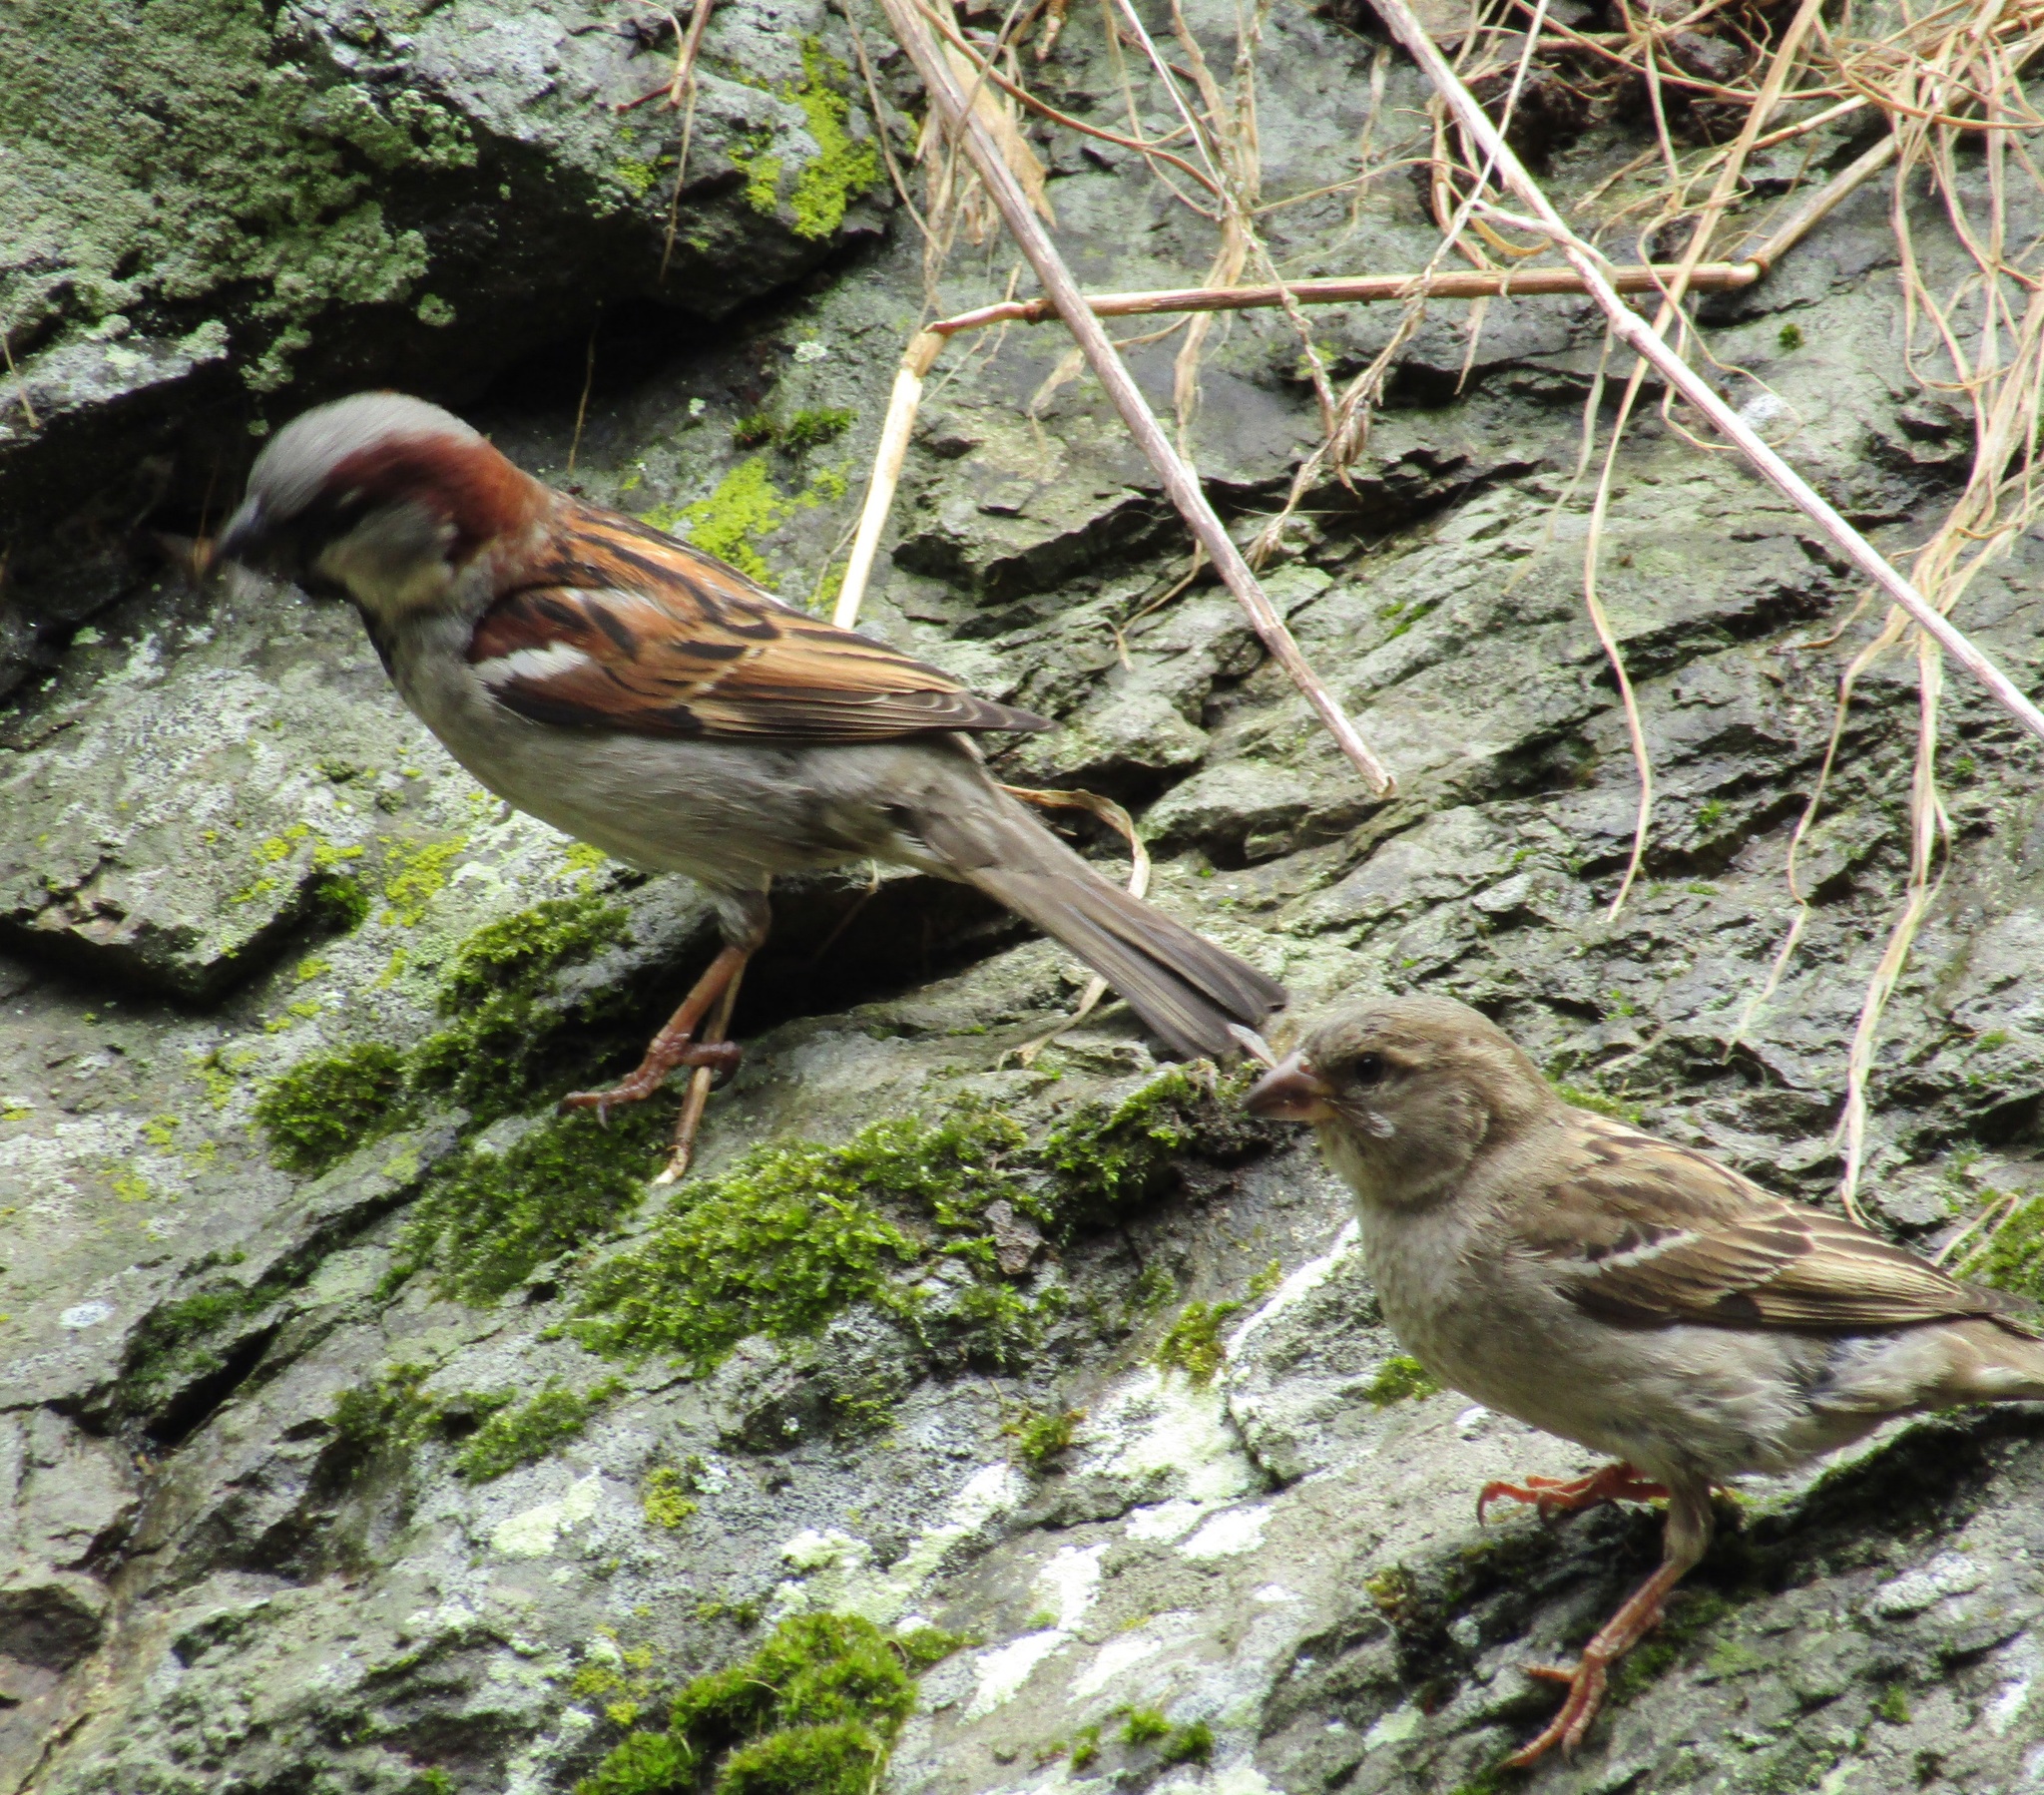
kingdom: Animalia
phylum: Chordata
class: Aves
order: Passeriformes
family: Passeridae
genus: Passer
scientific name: Passer domesticus
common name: House sparrow
